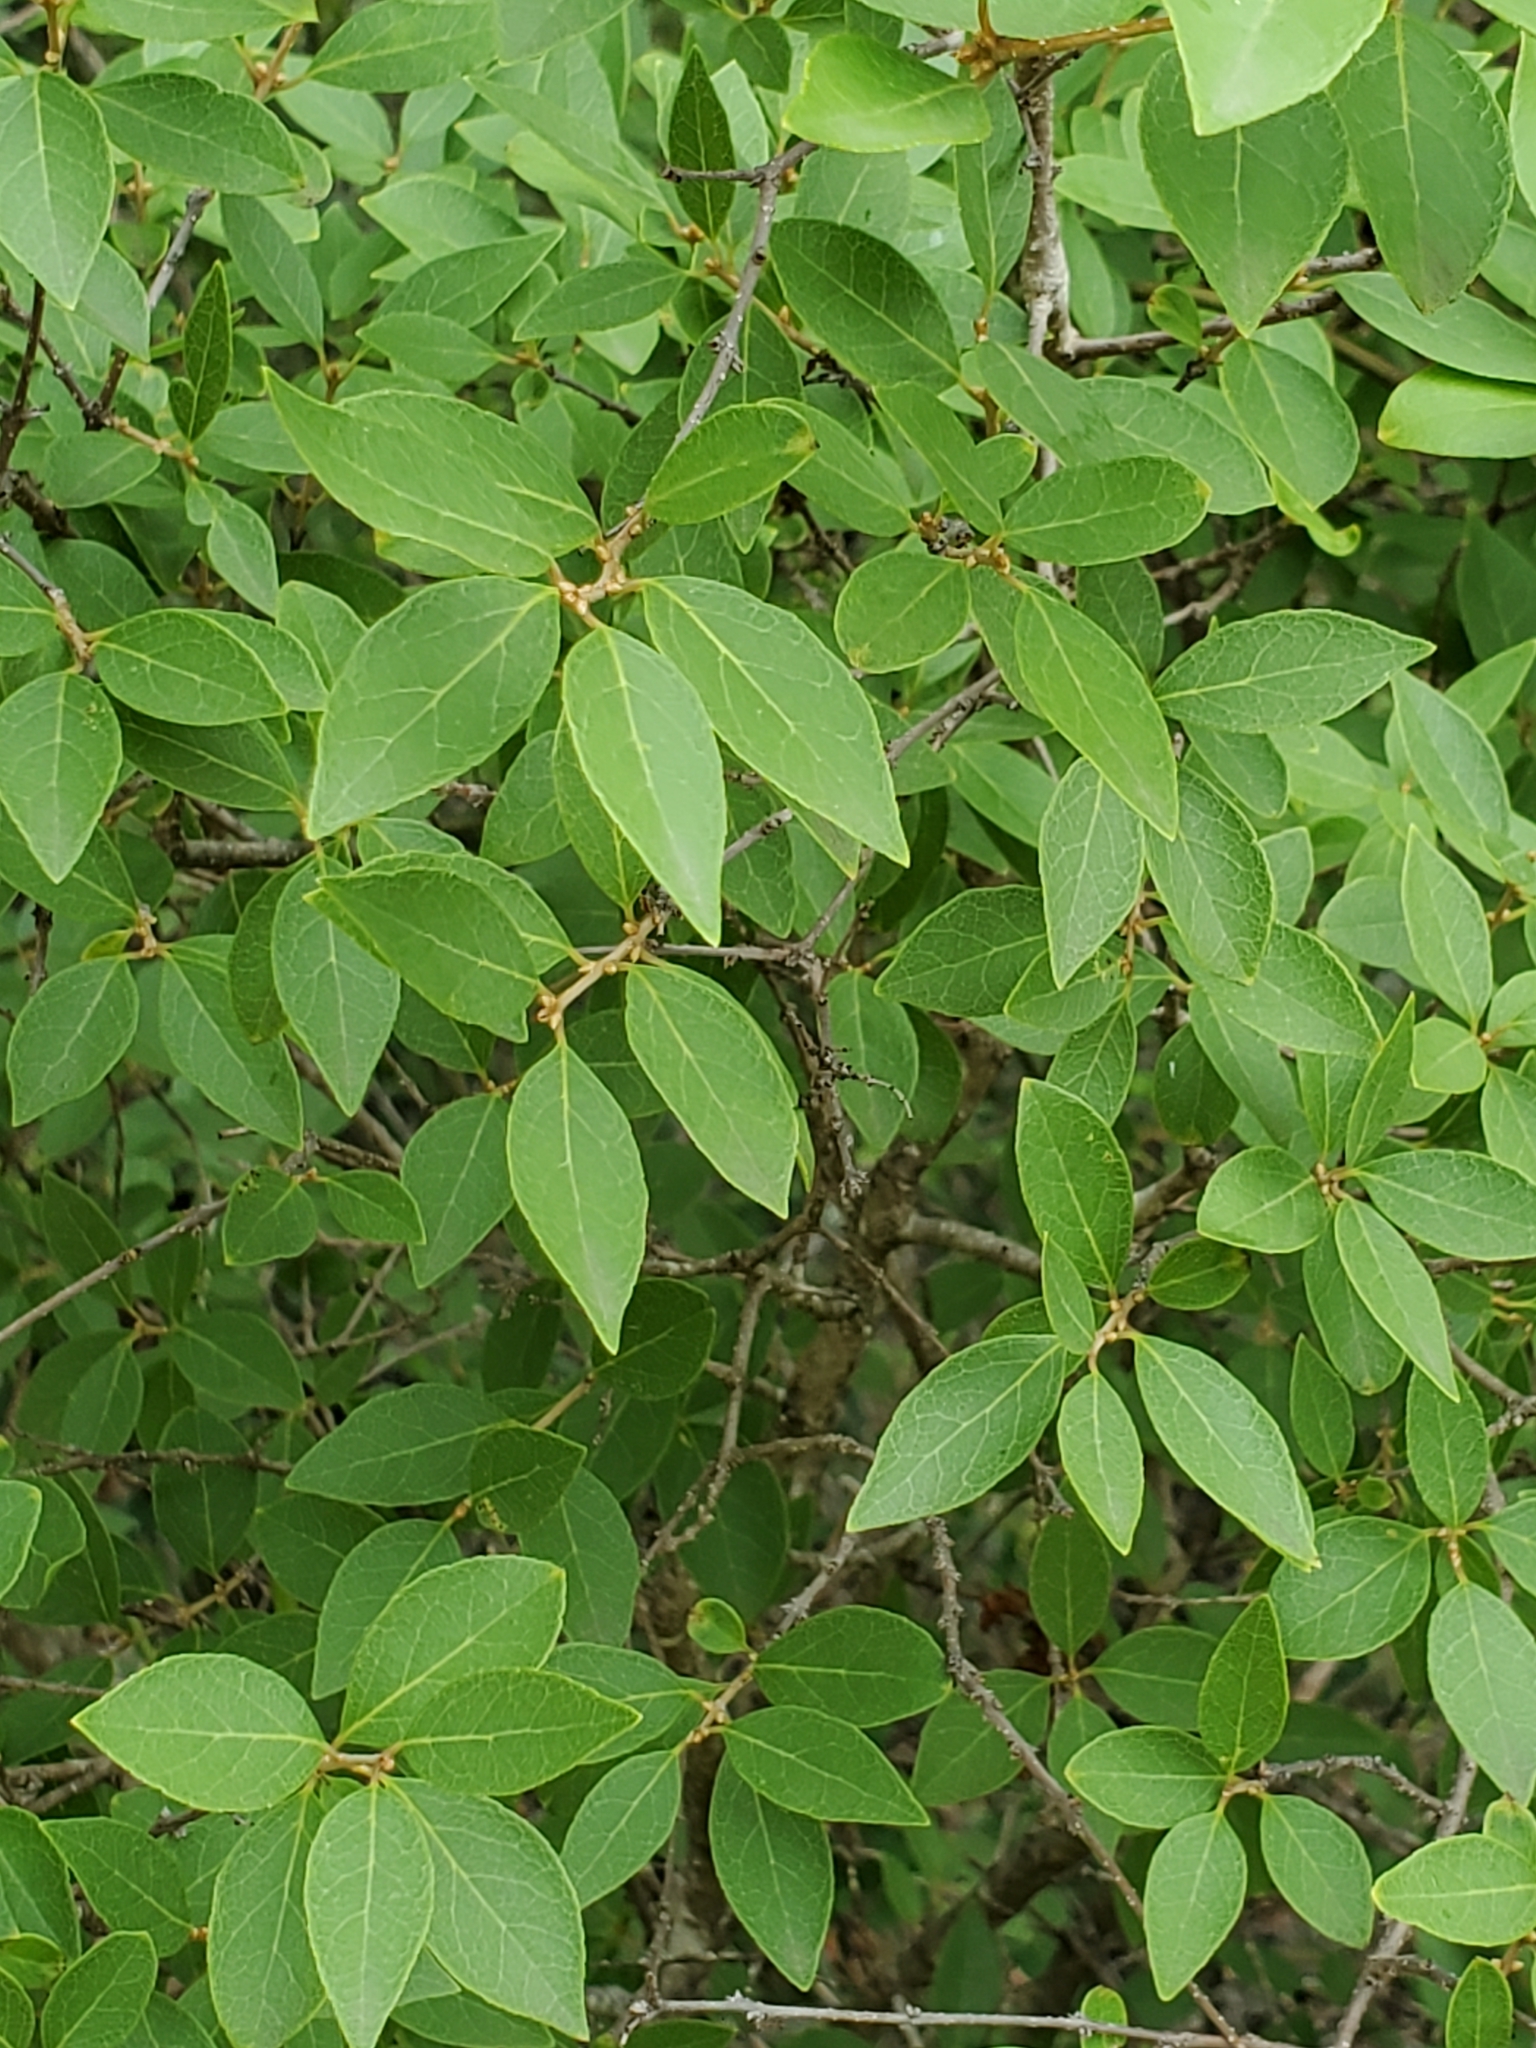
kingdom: Plantae
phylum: Tracheophyta
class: Magnoliopsida
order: Lamiales
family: Oleaceae
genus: Forestiera
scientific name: Forestiera reticulata
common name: Netleaf swamp-privet
